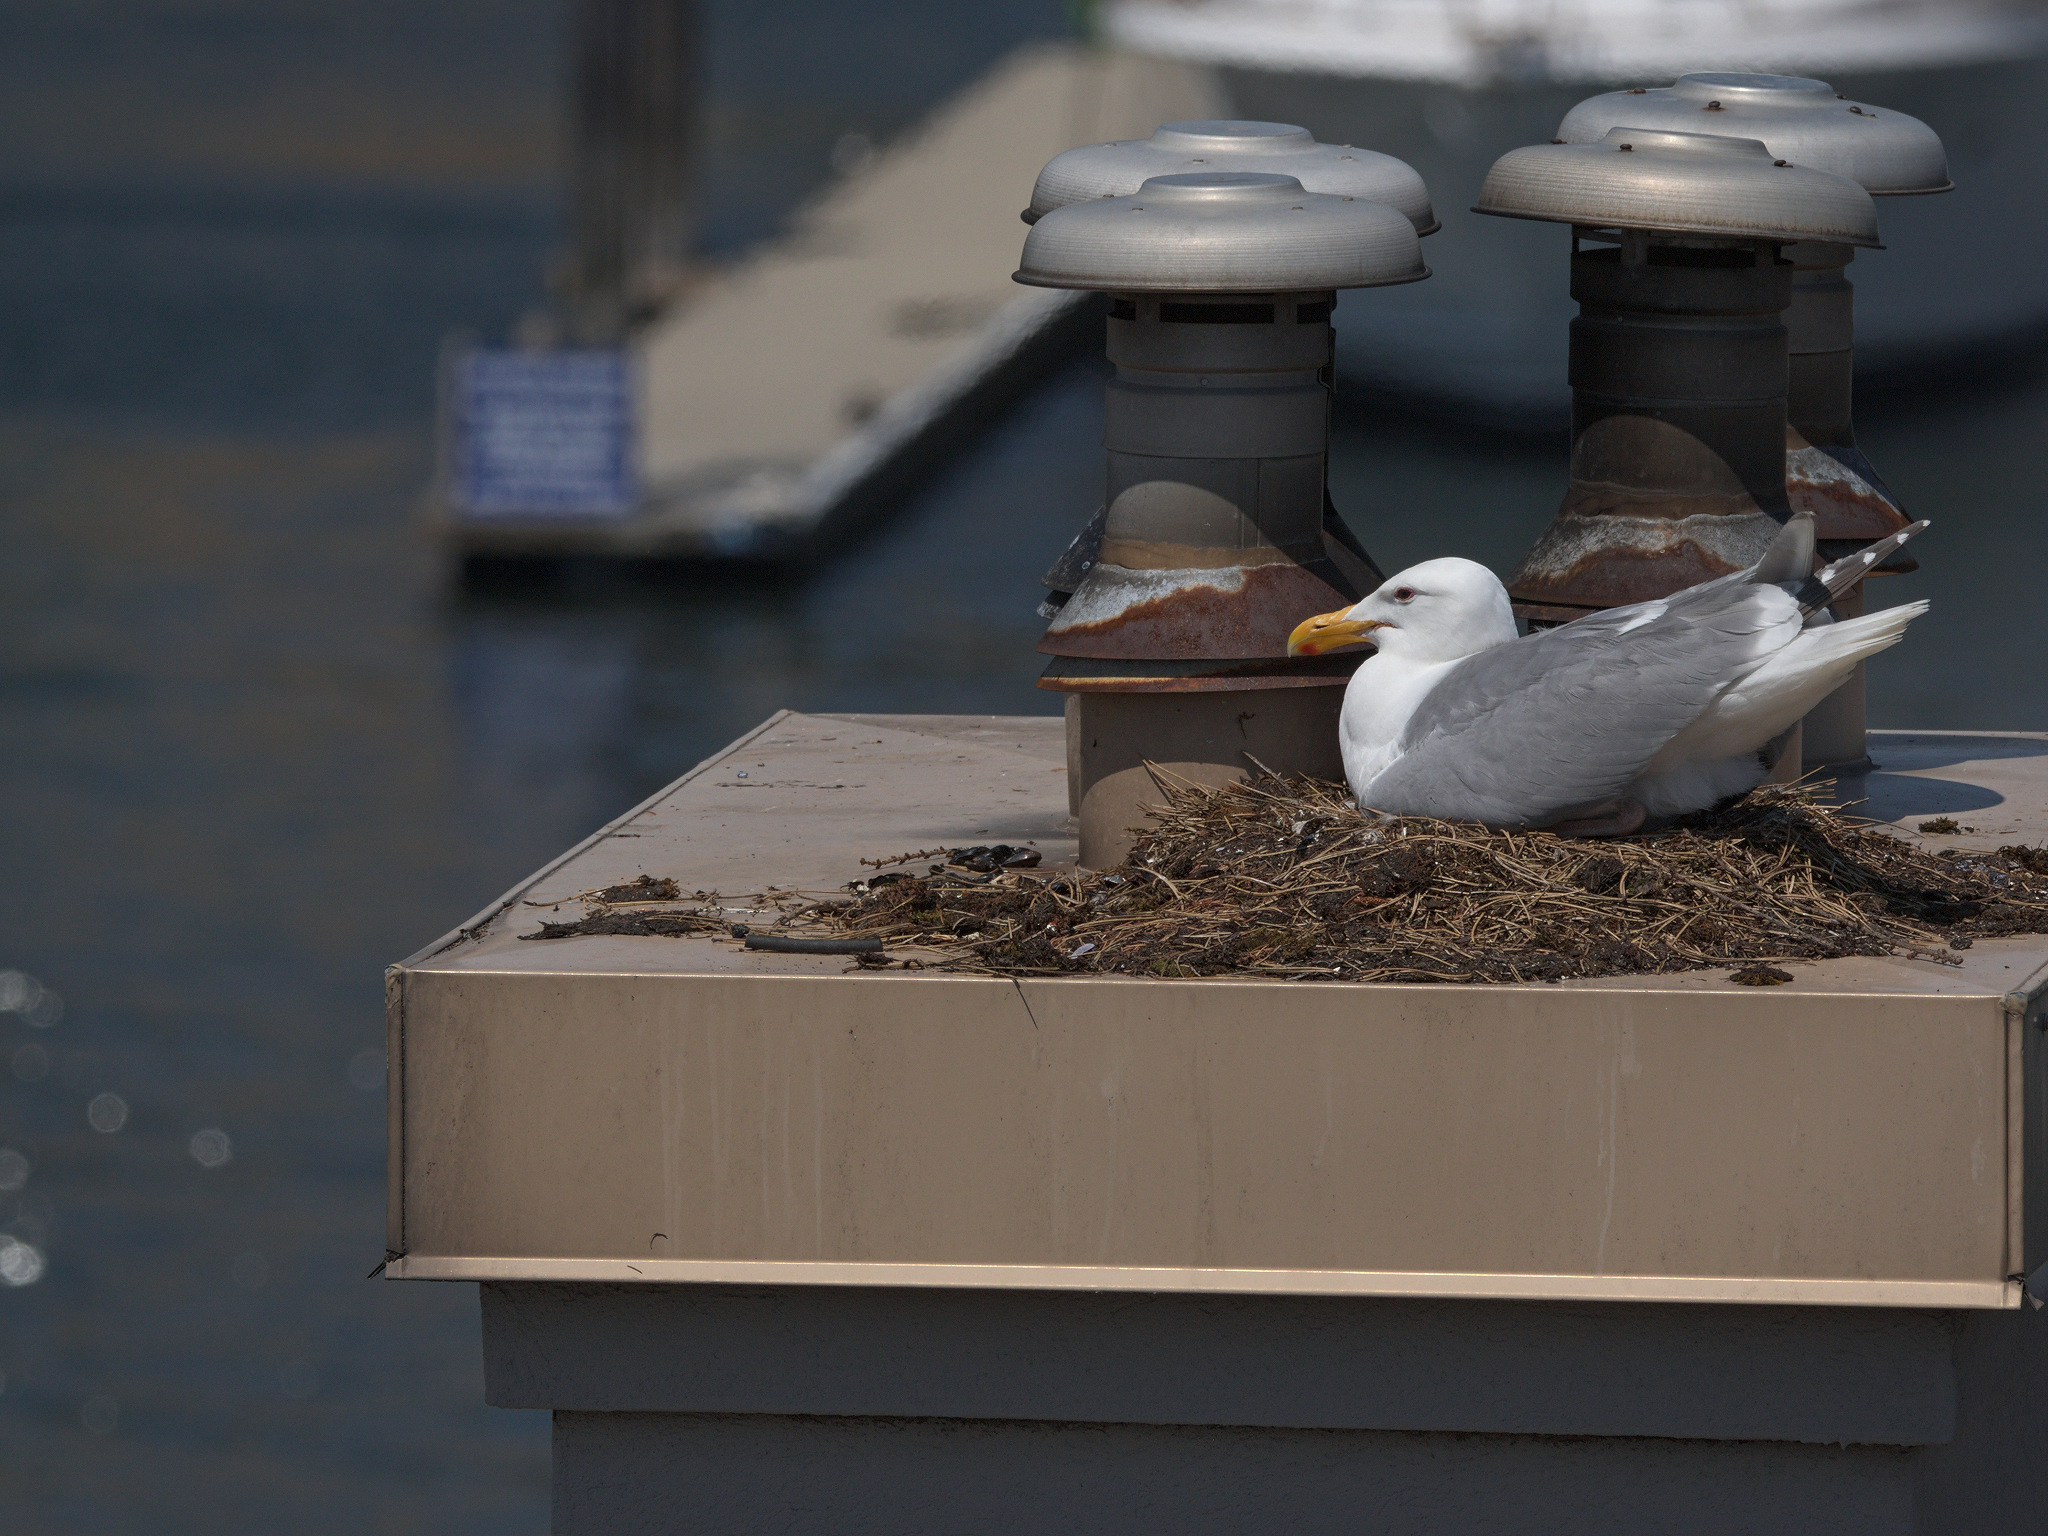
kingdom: Animalia
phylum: Chordata
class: Aves
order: Charadriiformes
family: Laridae
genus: Larus
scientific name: Larus
